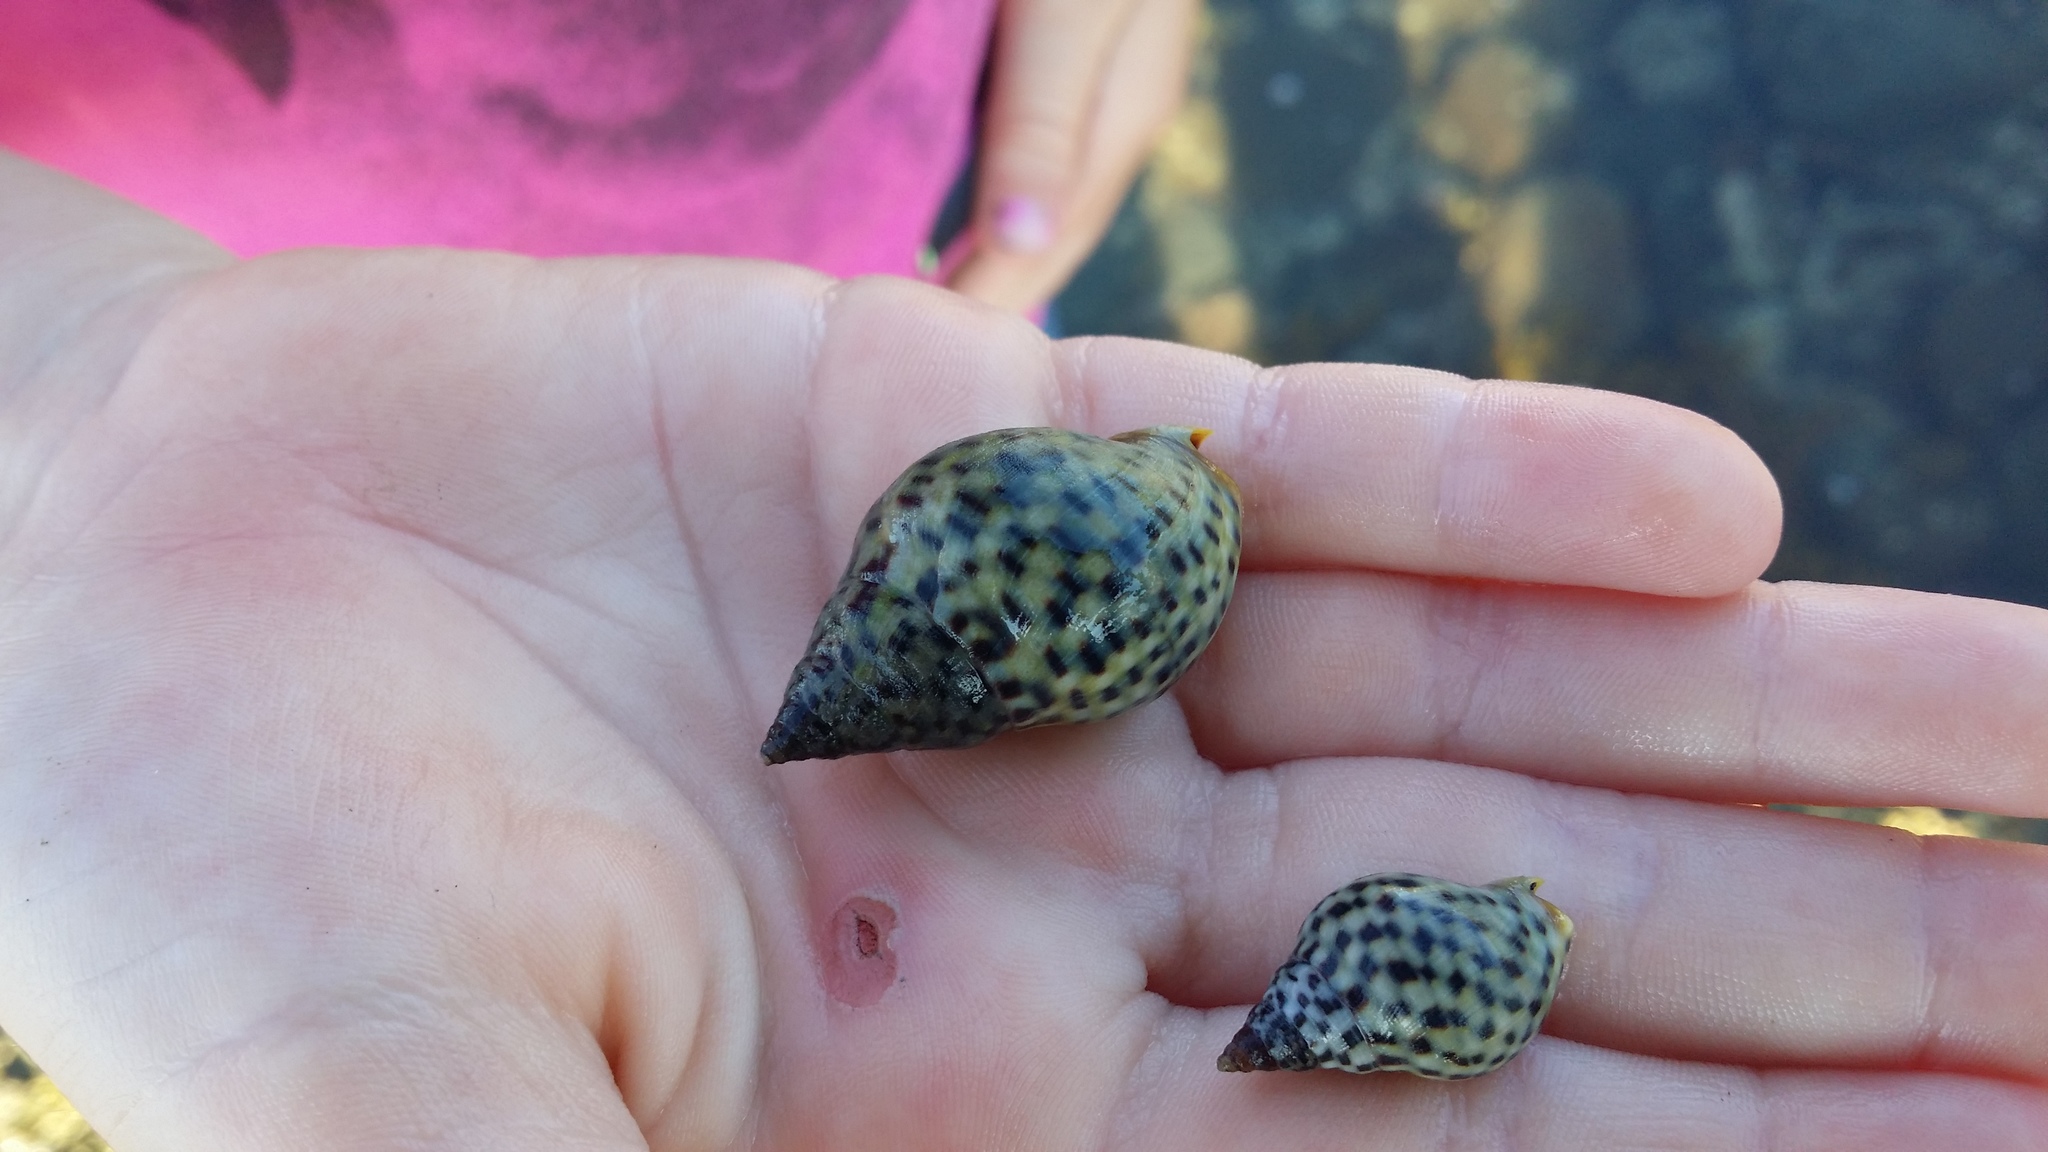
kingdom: Animalia
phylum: Mollusca
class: Gastropoda
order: Neogastropoda
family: Cominellidae
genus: Cominella
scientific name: Cominella maculosa
